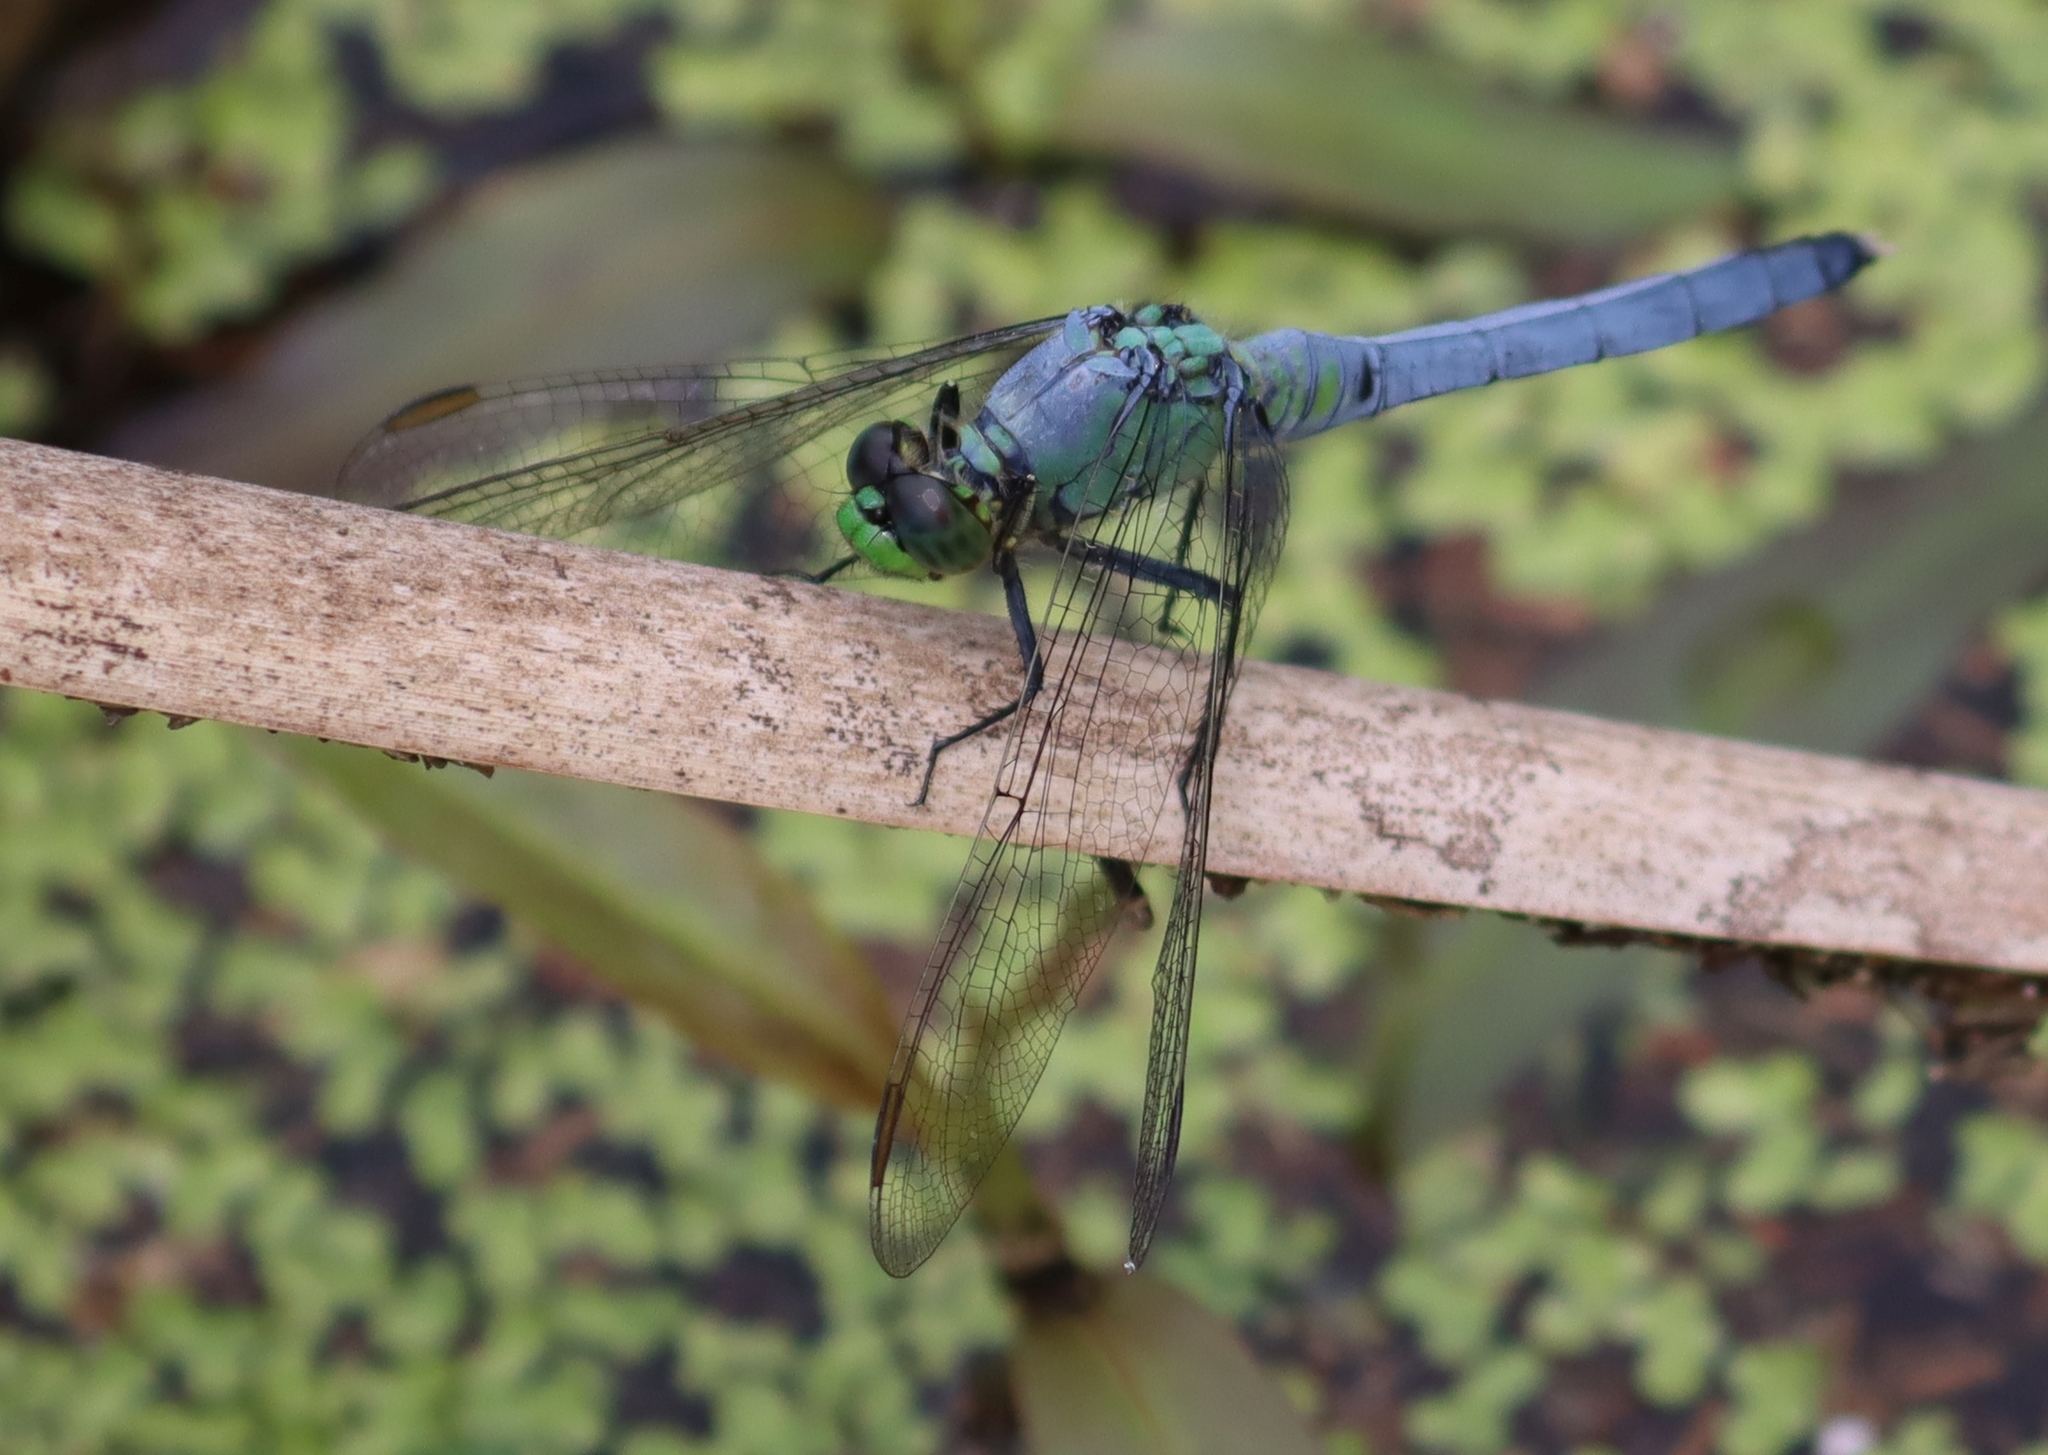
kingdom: Animalia
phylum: Arthropoda
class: Insecta
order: Odonata
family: Libellulidae
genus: Erythemis
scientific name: Erythemis simplicicollis
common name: Eastern pondhawk
